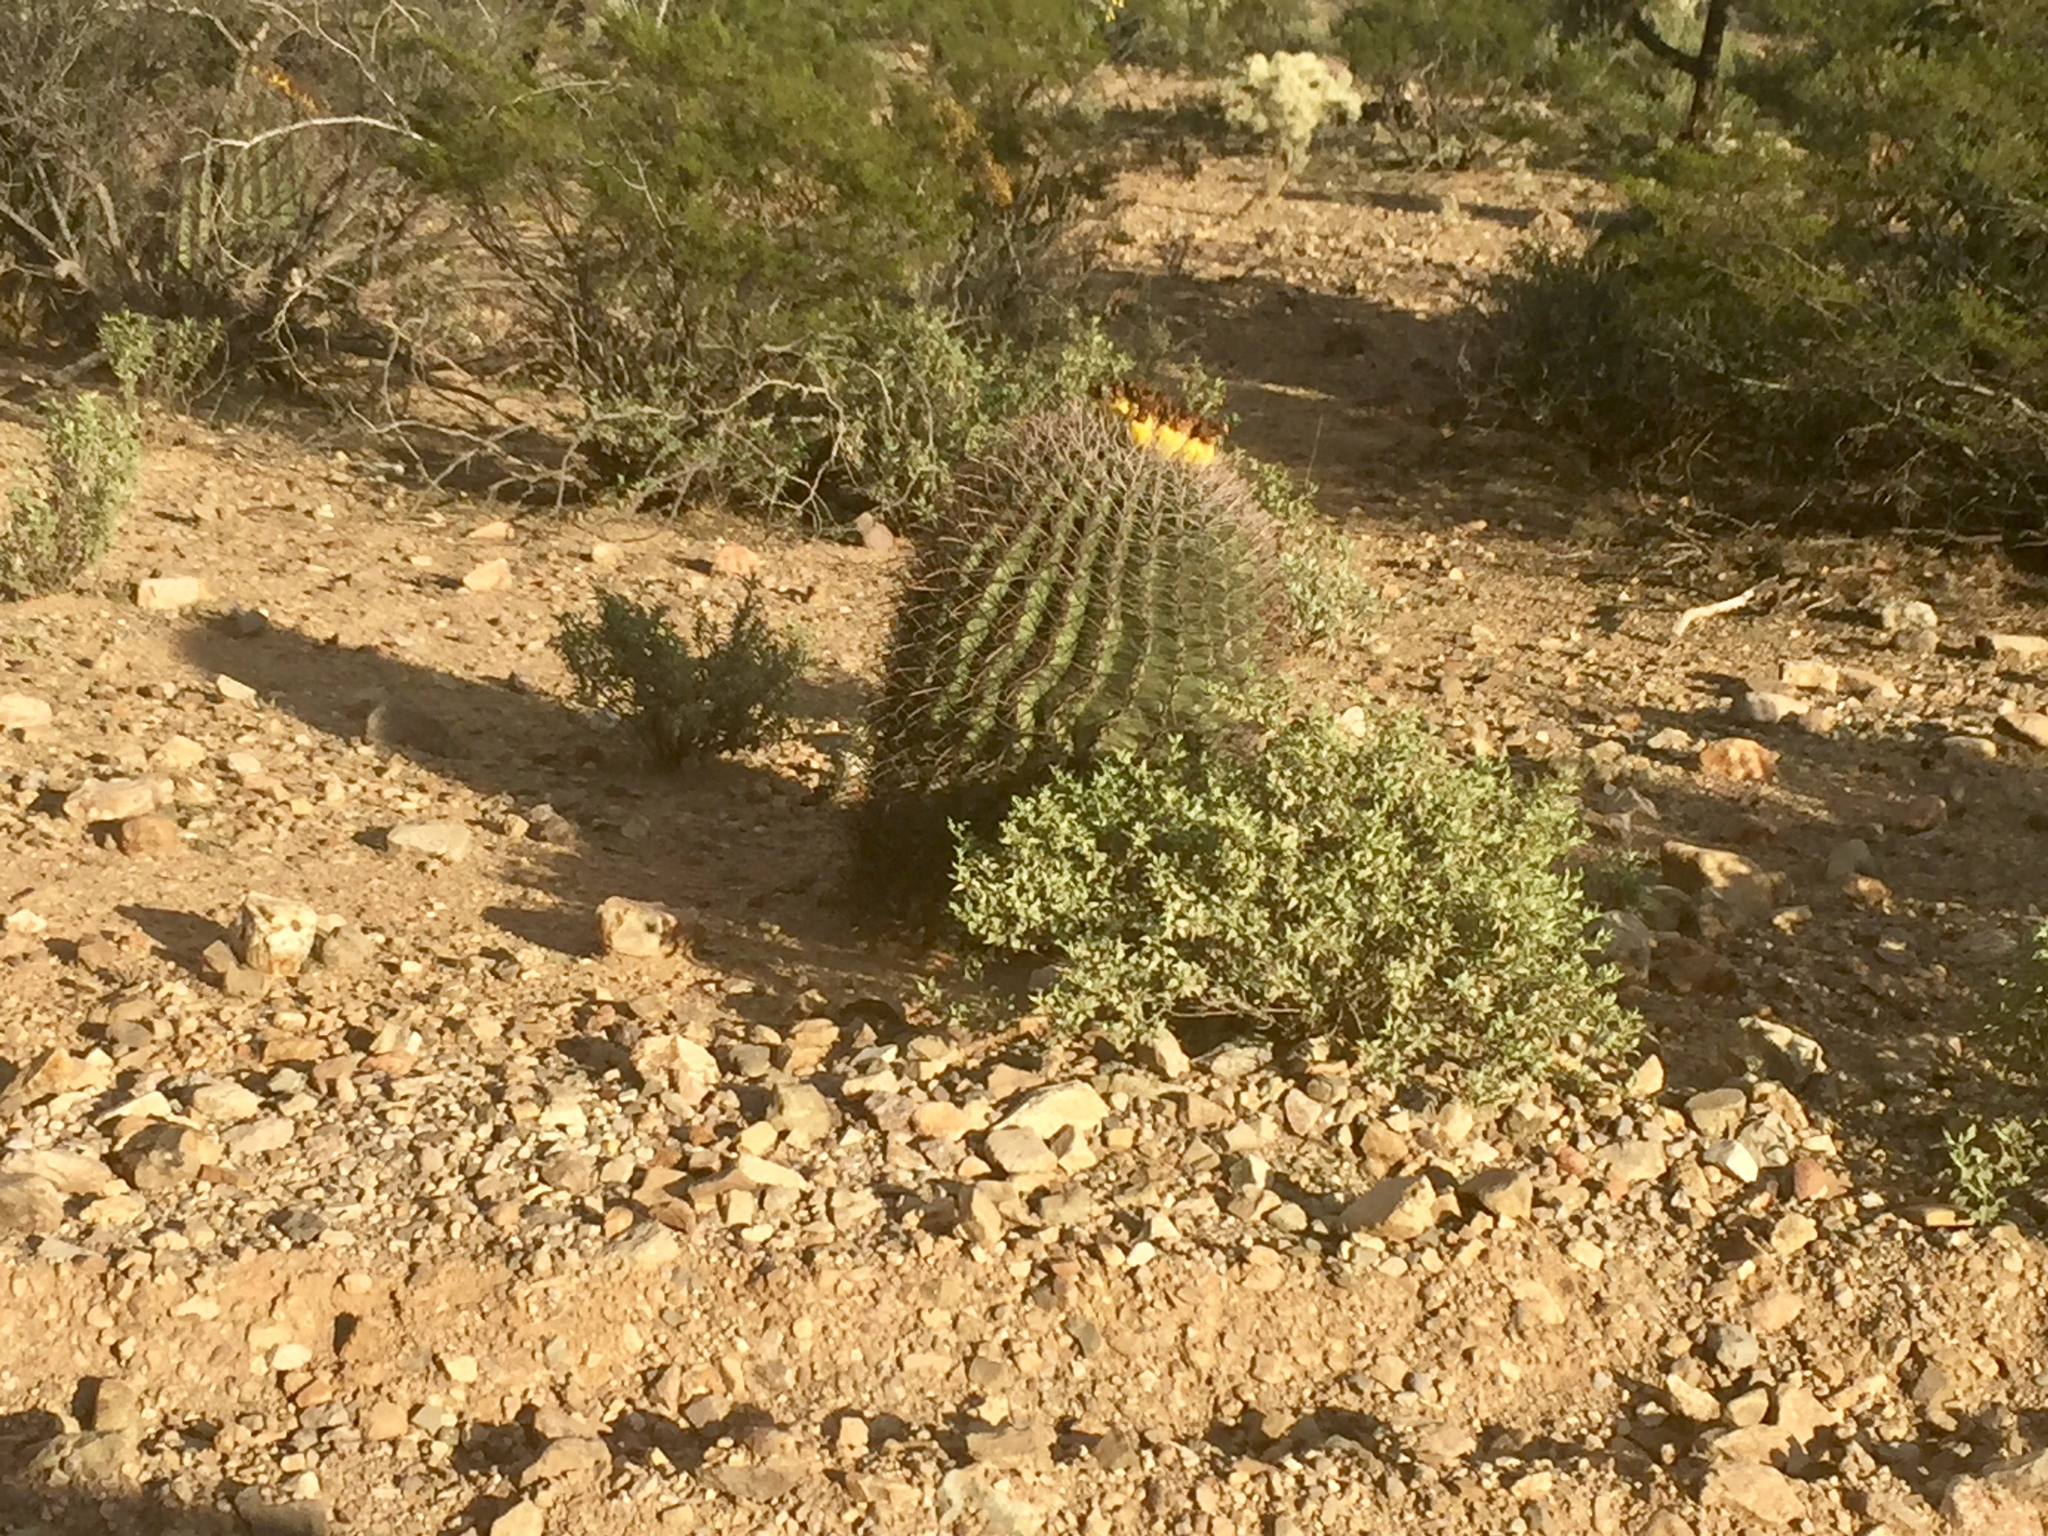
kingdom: Plantae
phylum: Tracheophyta
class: Magnoliopsida
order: Caryophyllales
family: Cactaceae
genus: Ferocactus
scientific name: Ferocactus wislizeni
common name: Candy barrel cactus
